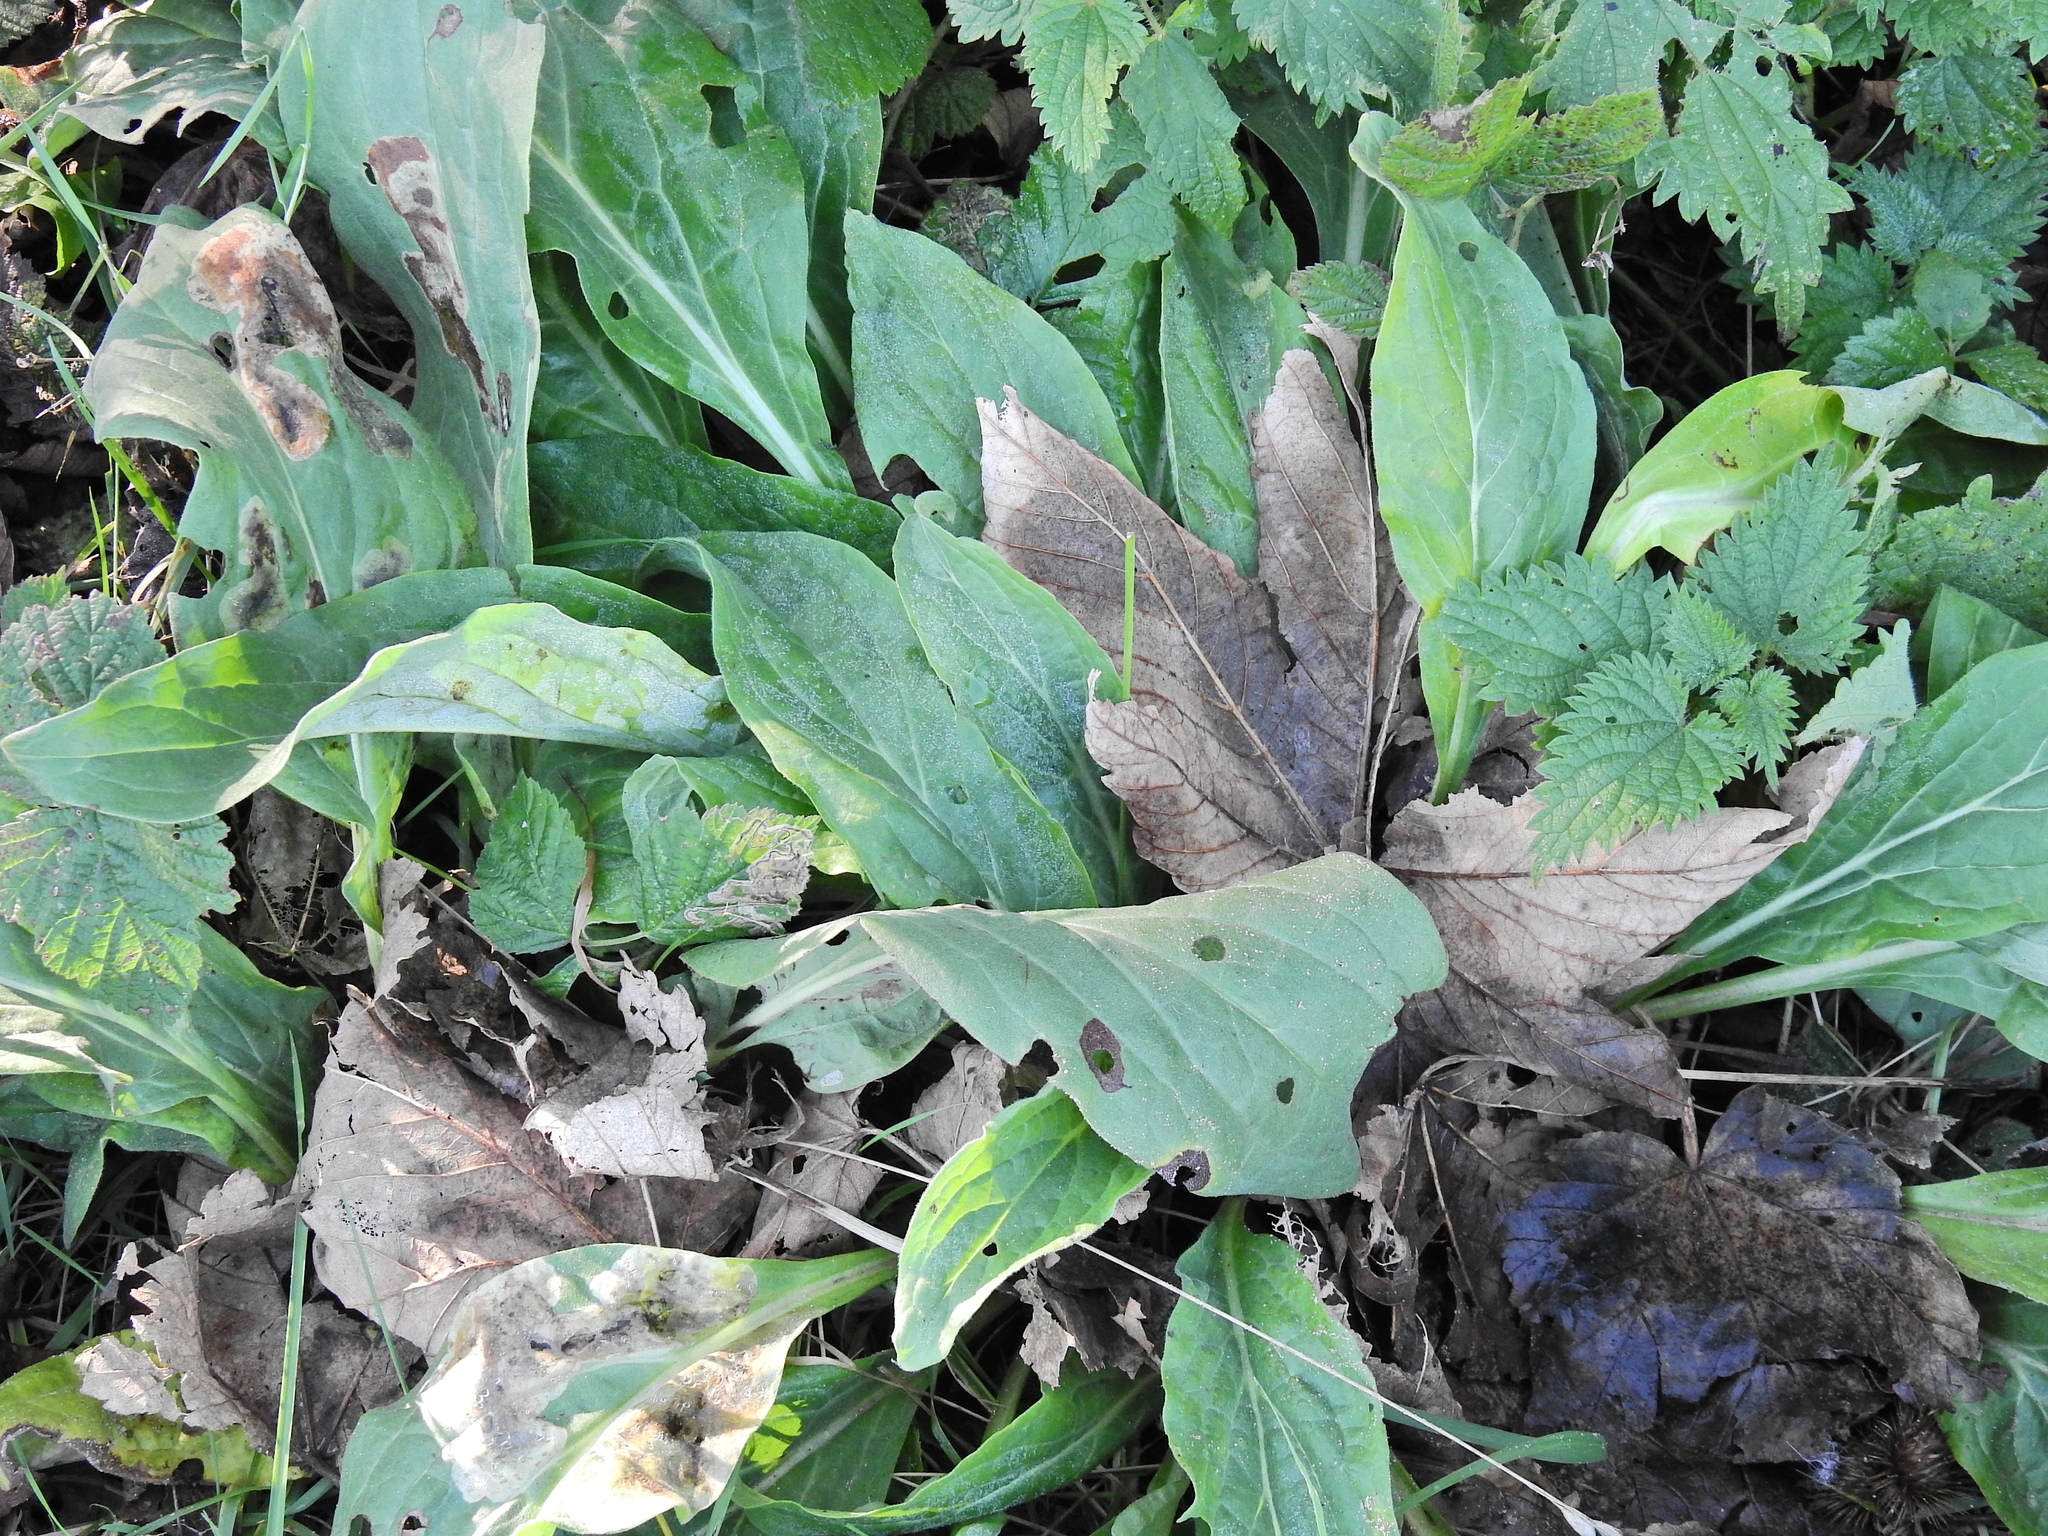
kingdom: Plantae
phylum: Tracheophyta
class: Magnoliopsida
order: Boraginales
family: Boraginaceae
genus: Cynoglossum
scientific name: Cynoglossum officinale
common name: Hound's-tongue
